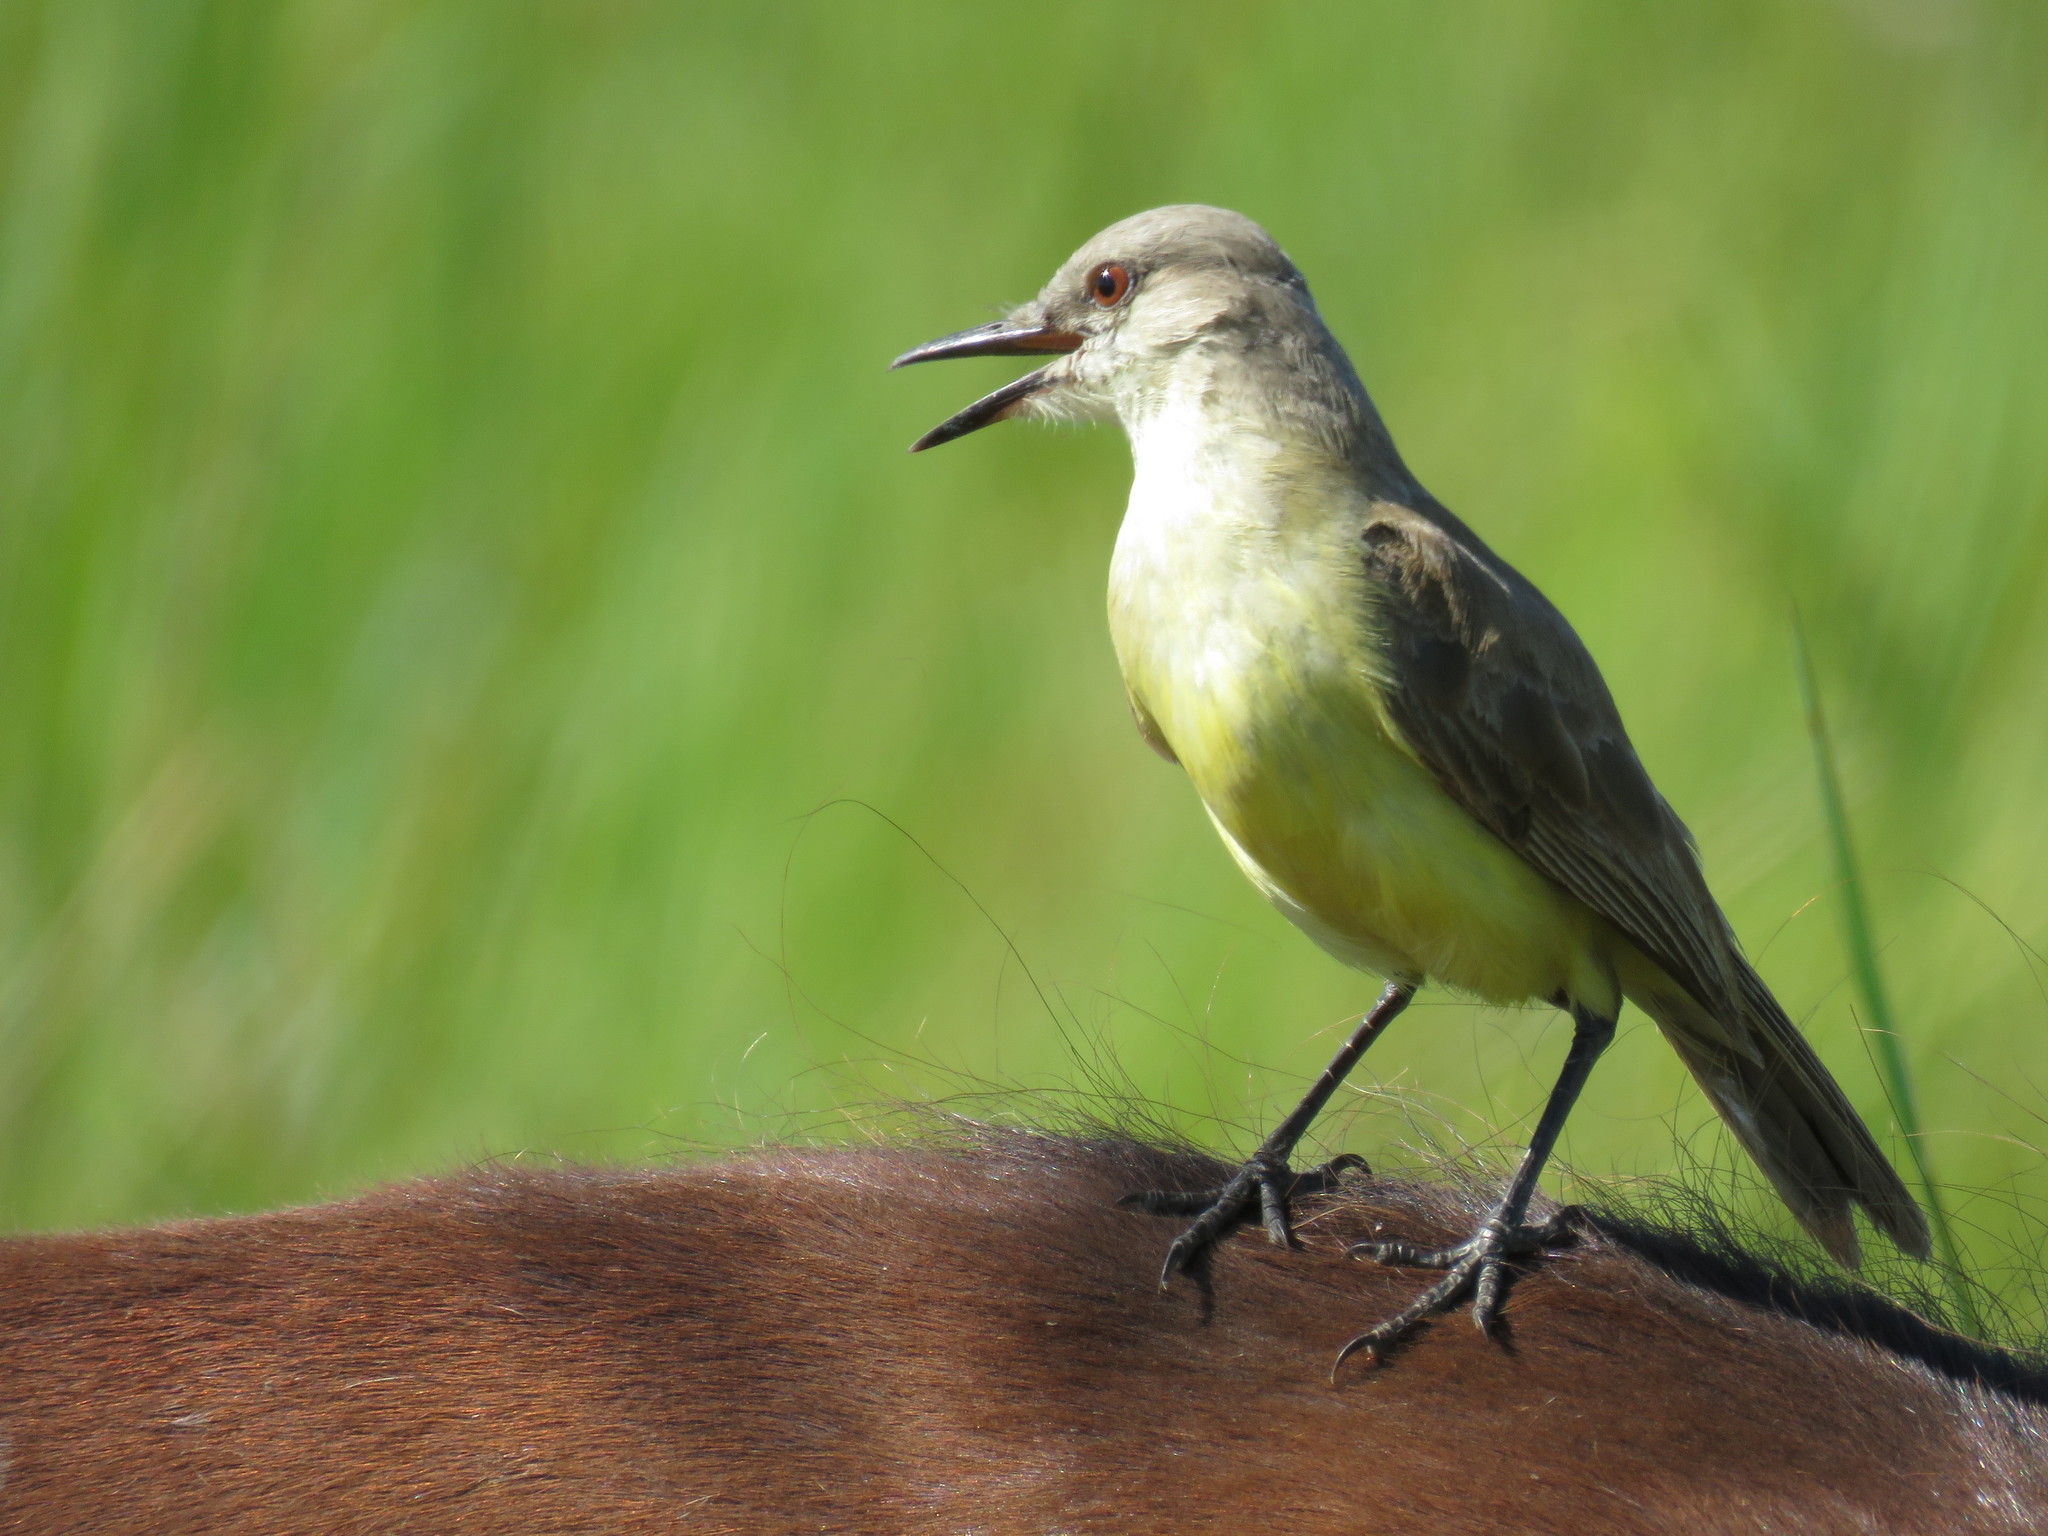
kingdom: Animalia
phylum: Chordata
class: Aves
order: Passeriformes
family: Tyrannidae
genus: Machetornis
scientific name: Machetornis rixosa
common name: Cattle tyrant
